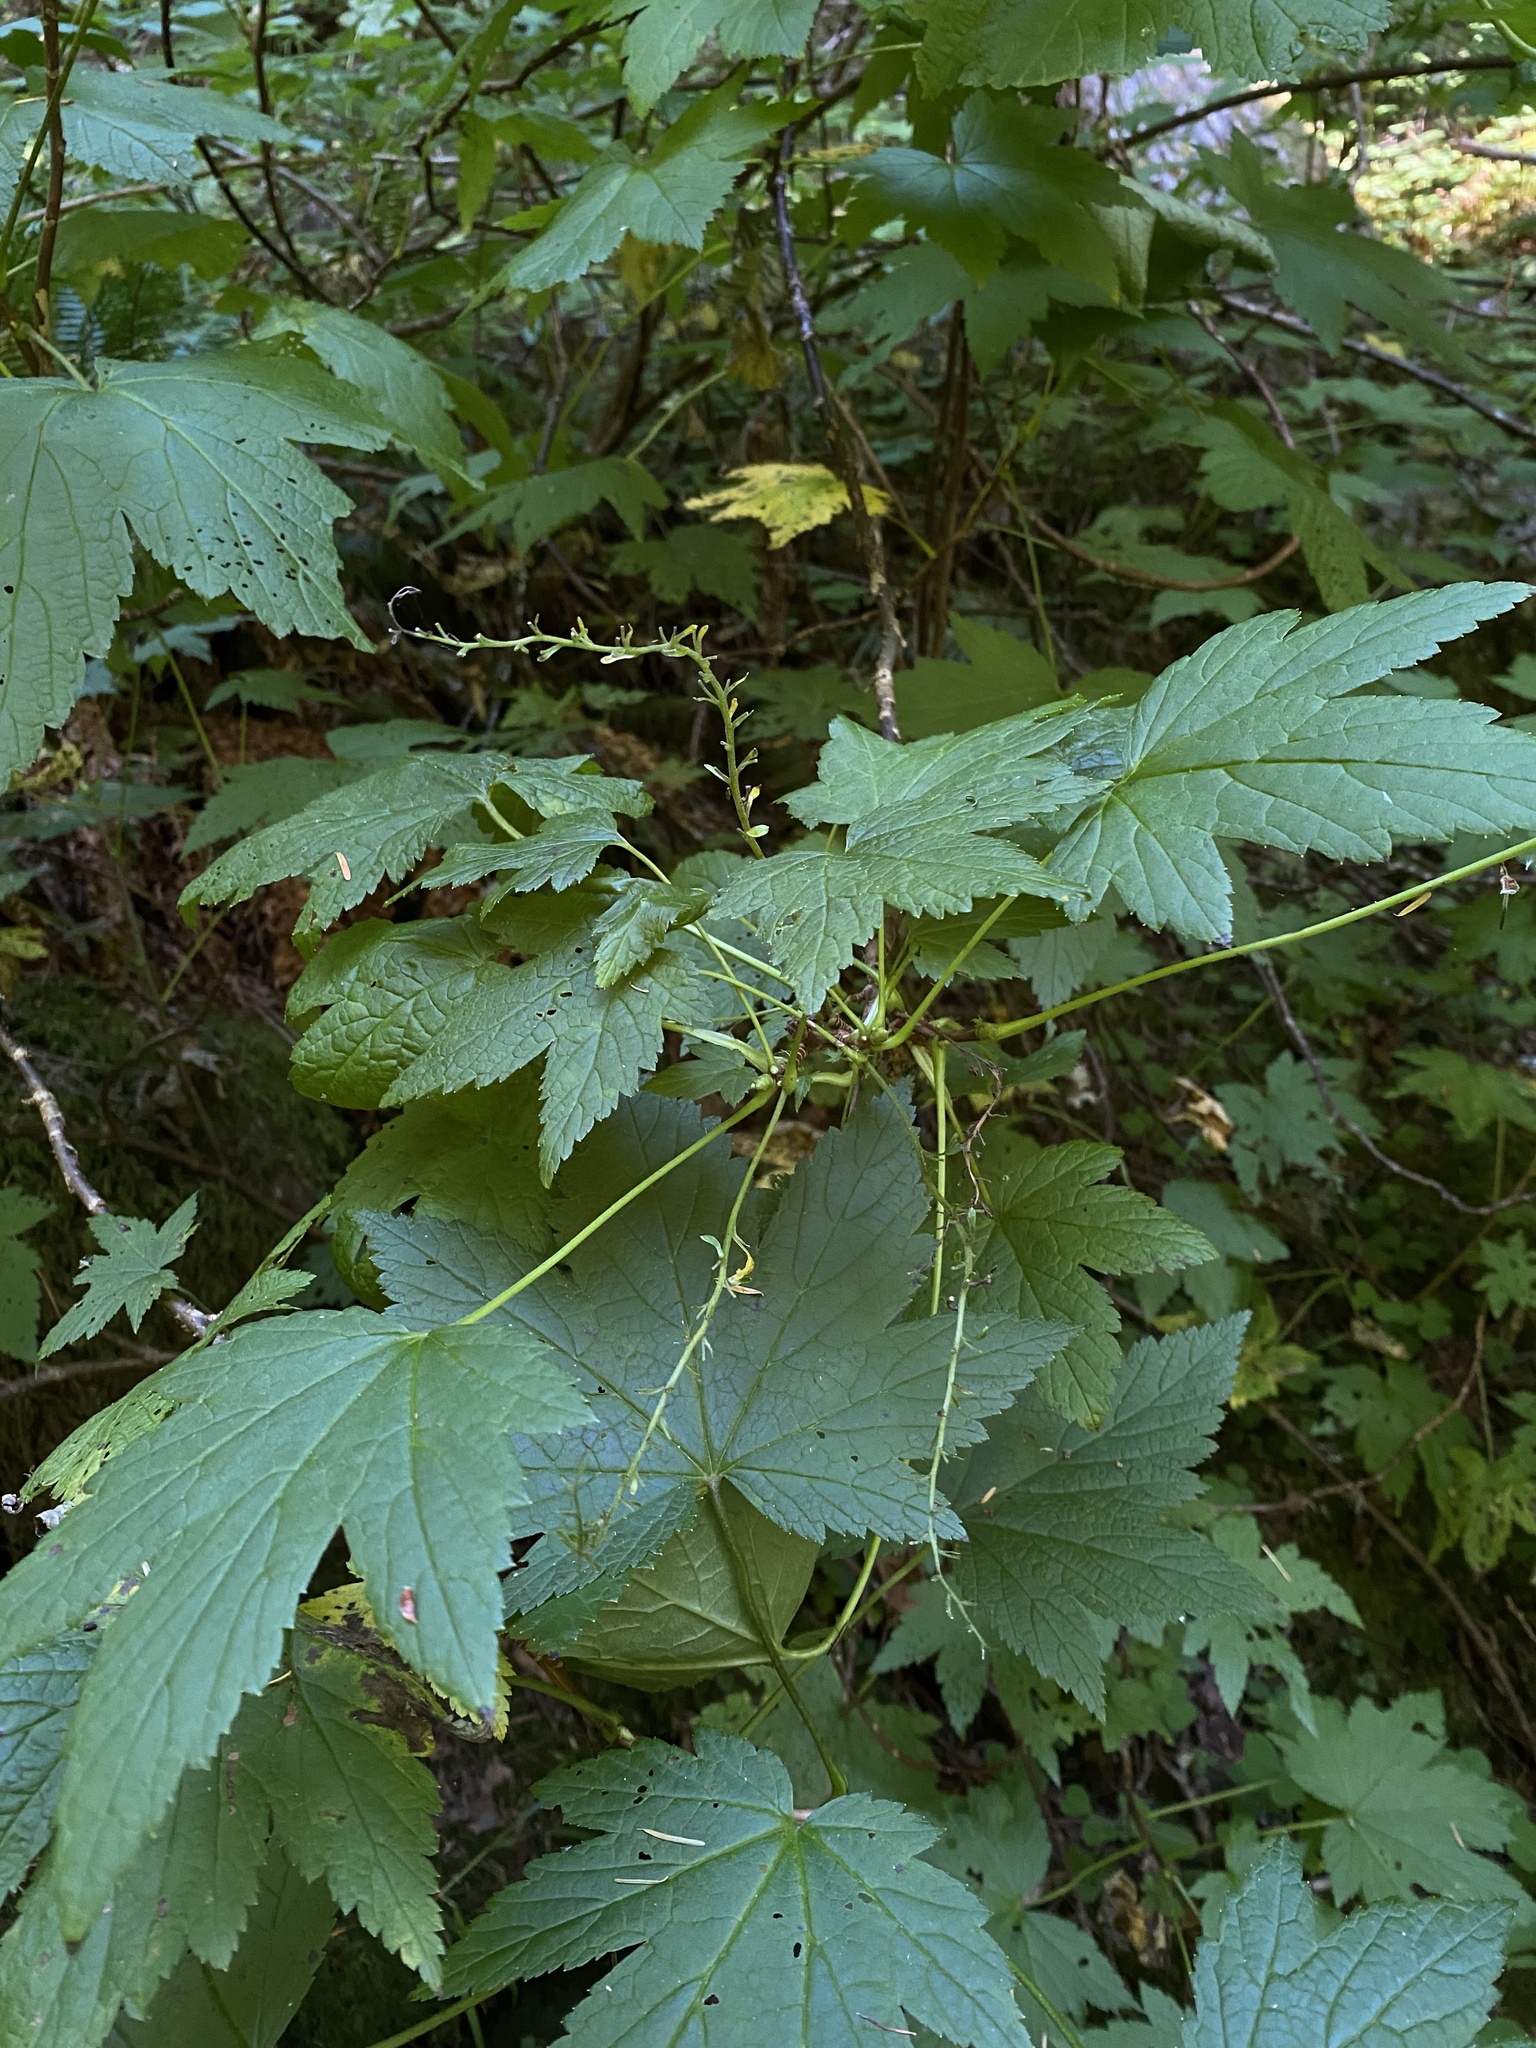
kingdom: Plantae
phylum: Tracheophyta
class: Magnoliopsida
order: Saxifragales
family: Grossulariaceae
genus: Ribes
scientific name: Ribes bracteosum
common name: California black currant
